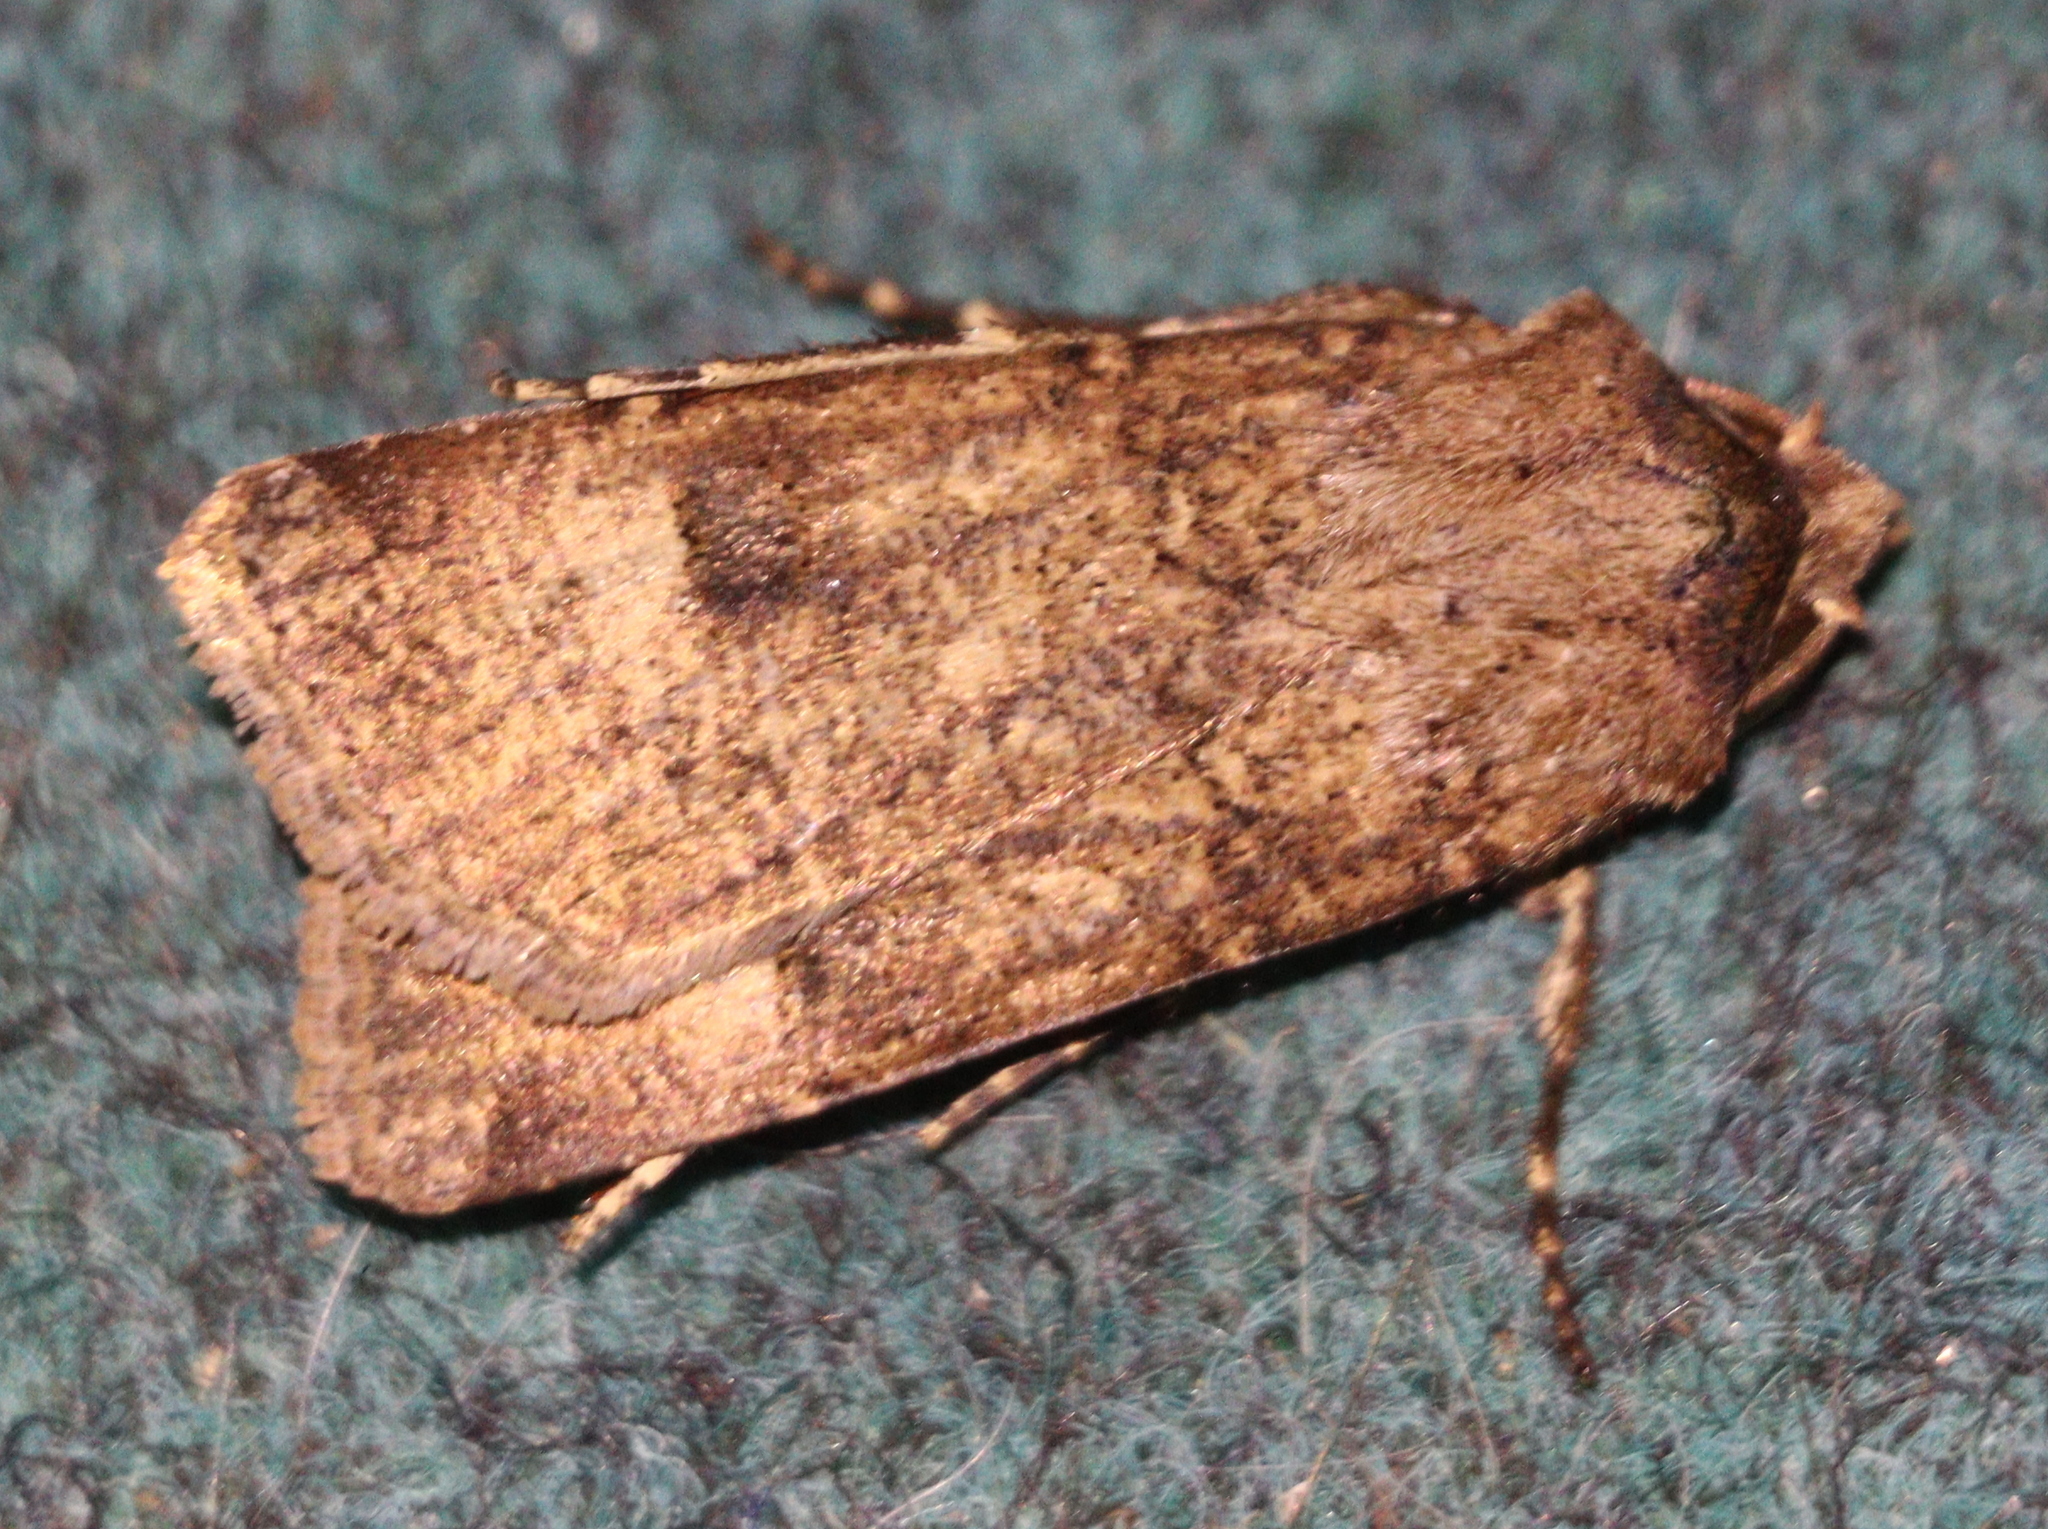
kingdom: Animalia
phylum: Arthropoda
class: Insecta
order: Lepidoptera
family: Noctuidae
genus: Agrotis
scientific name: Agrotis trux
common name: Crescent dart
